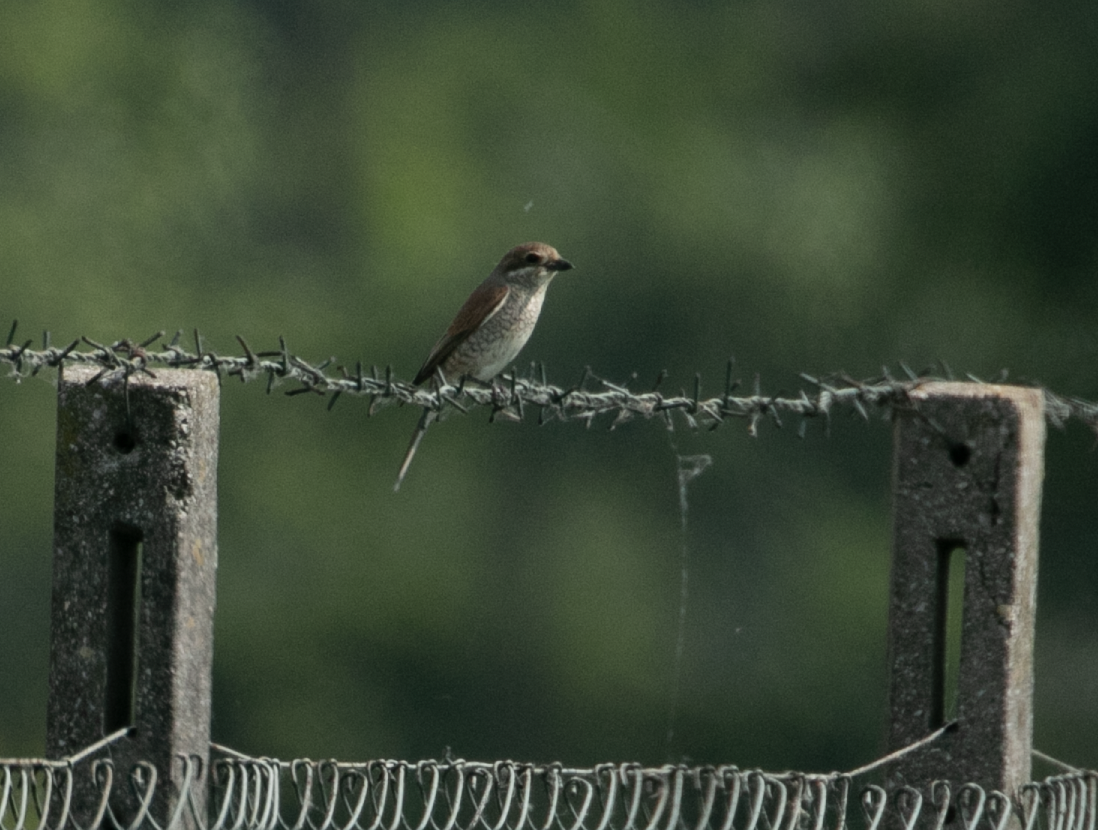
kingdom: Animalia
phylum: Chordata
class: Aves
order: Passeriformes
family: Laniidae
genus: Lanius
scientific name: Lanius collurio
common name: Red-backed shrike
